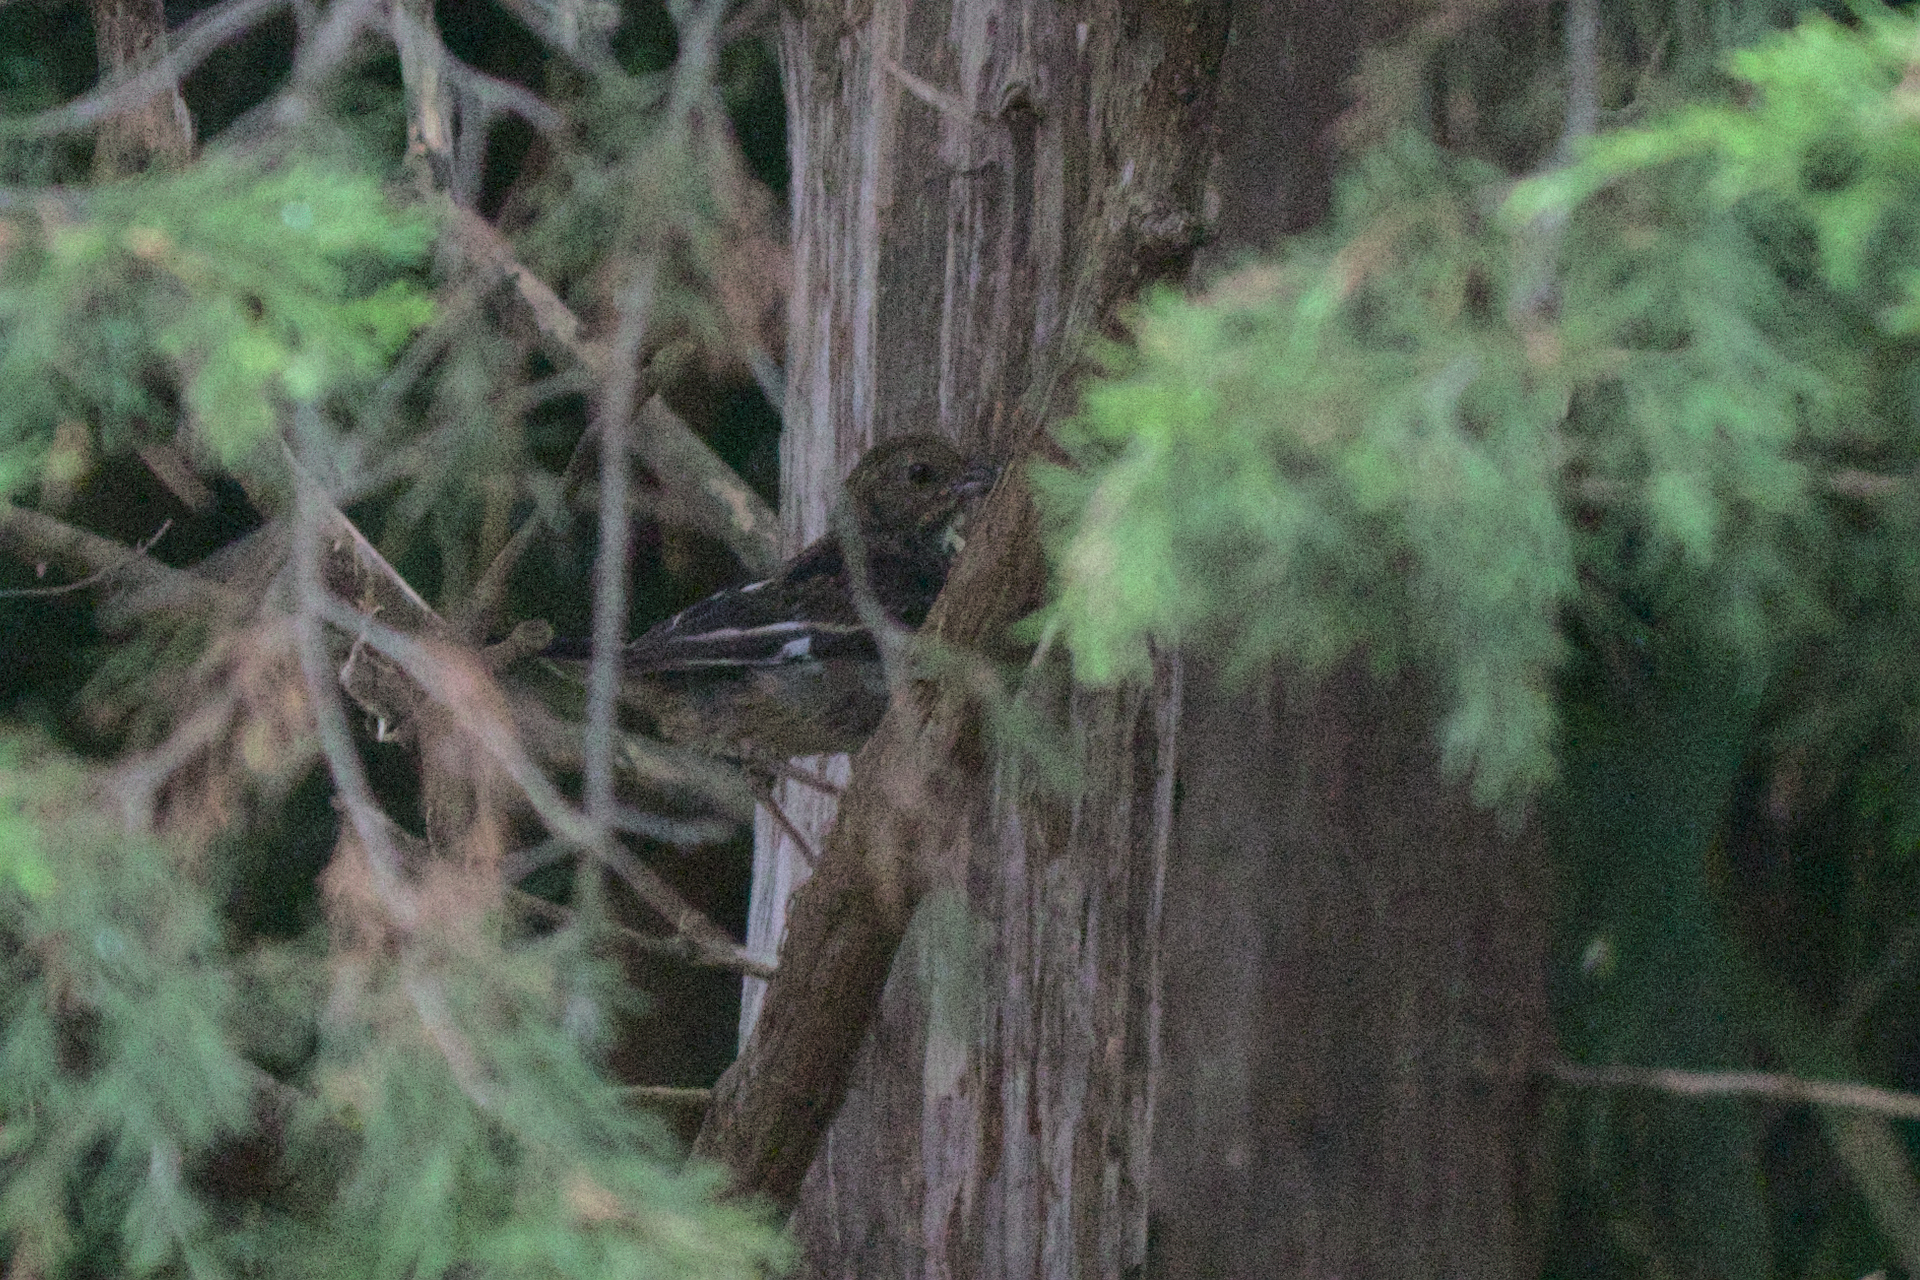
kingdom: Animalia
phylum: Chordata
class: Aves
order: Passeriformes
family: Passerellidae
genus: Pipilo
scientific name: Pipilo erythrophthalmus
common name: Eastern towhee
